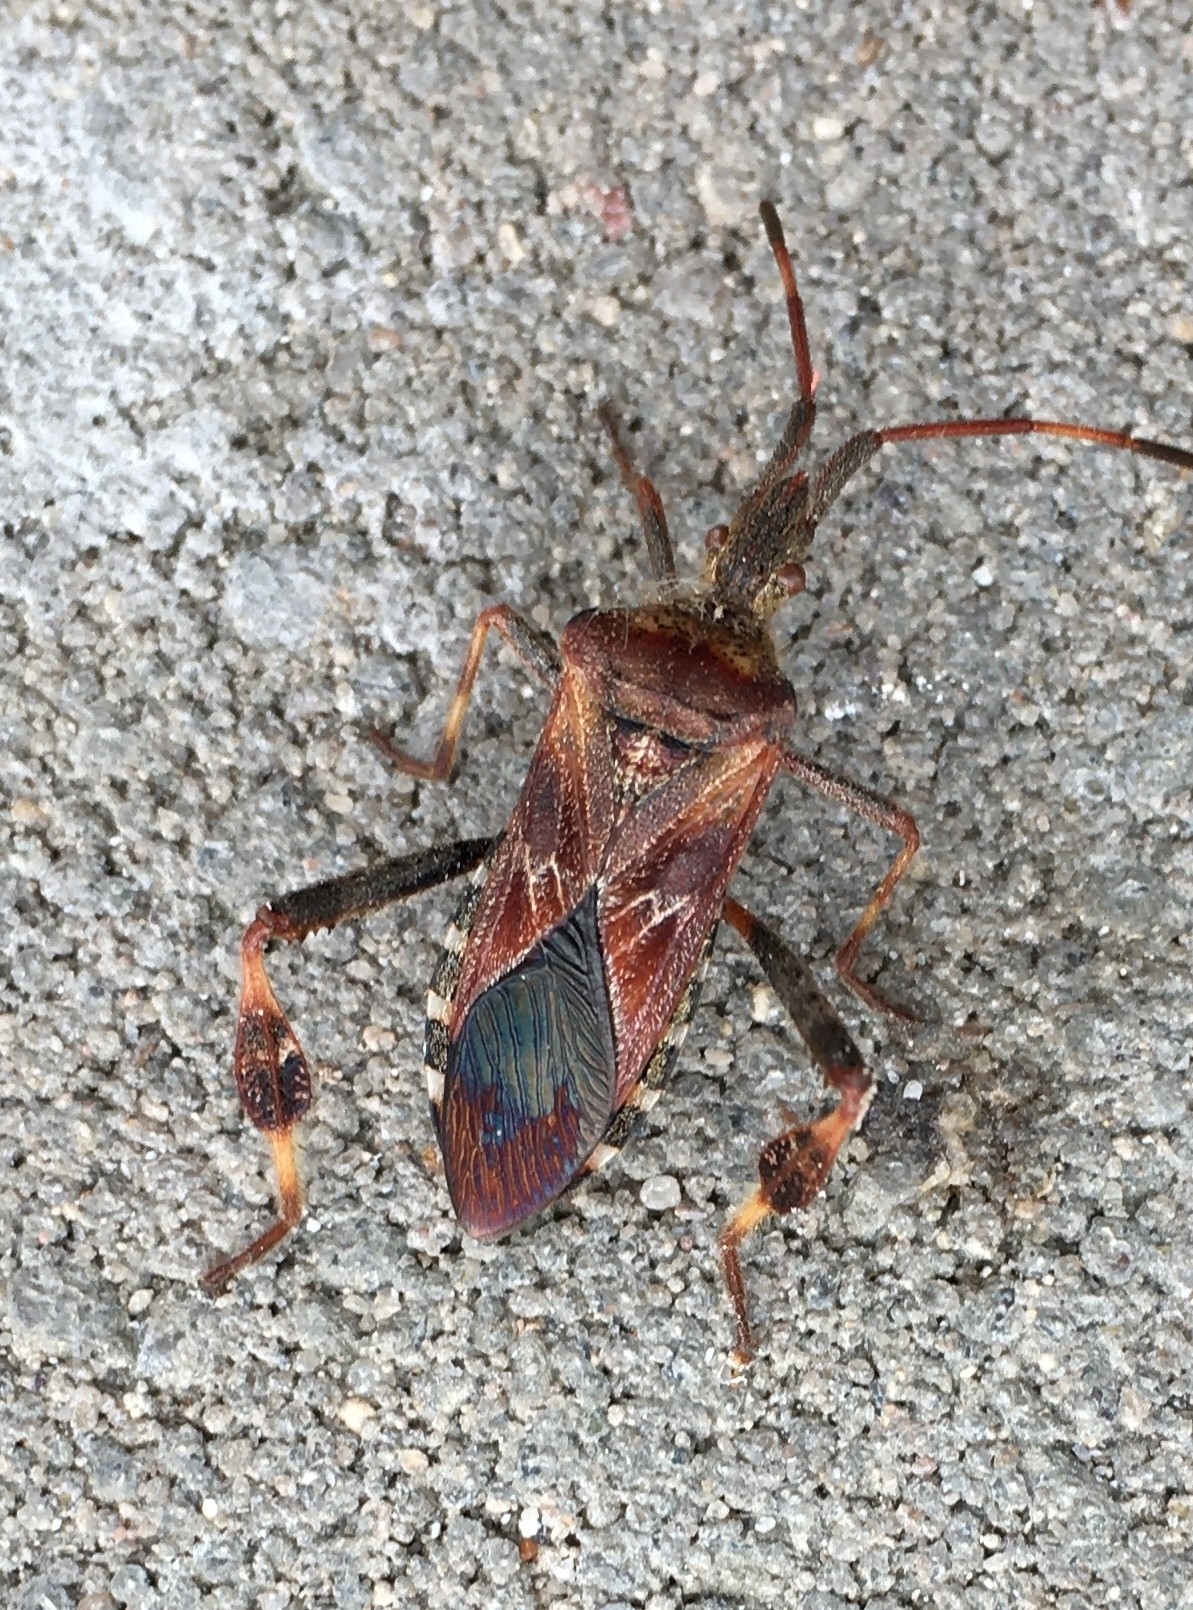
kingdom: Animalia
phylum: Arthropoda
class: Insecta
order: Hemiptera
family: Coreidae
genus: Leptoglossus
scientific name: Leptoglossus occidentalis
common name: Western conifer-seed bug
